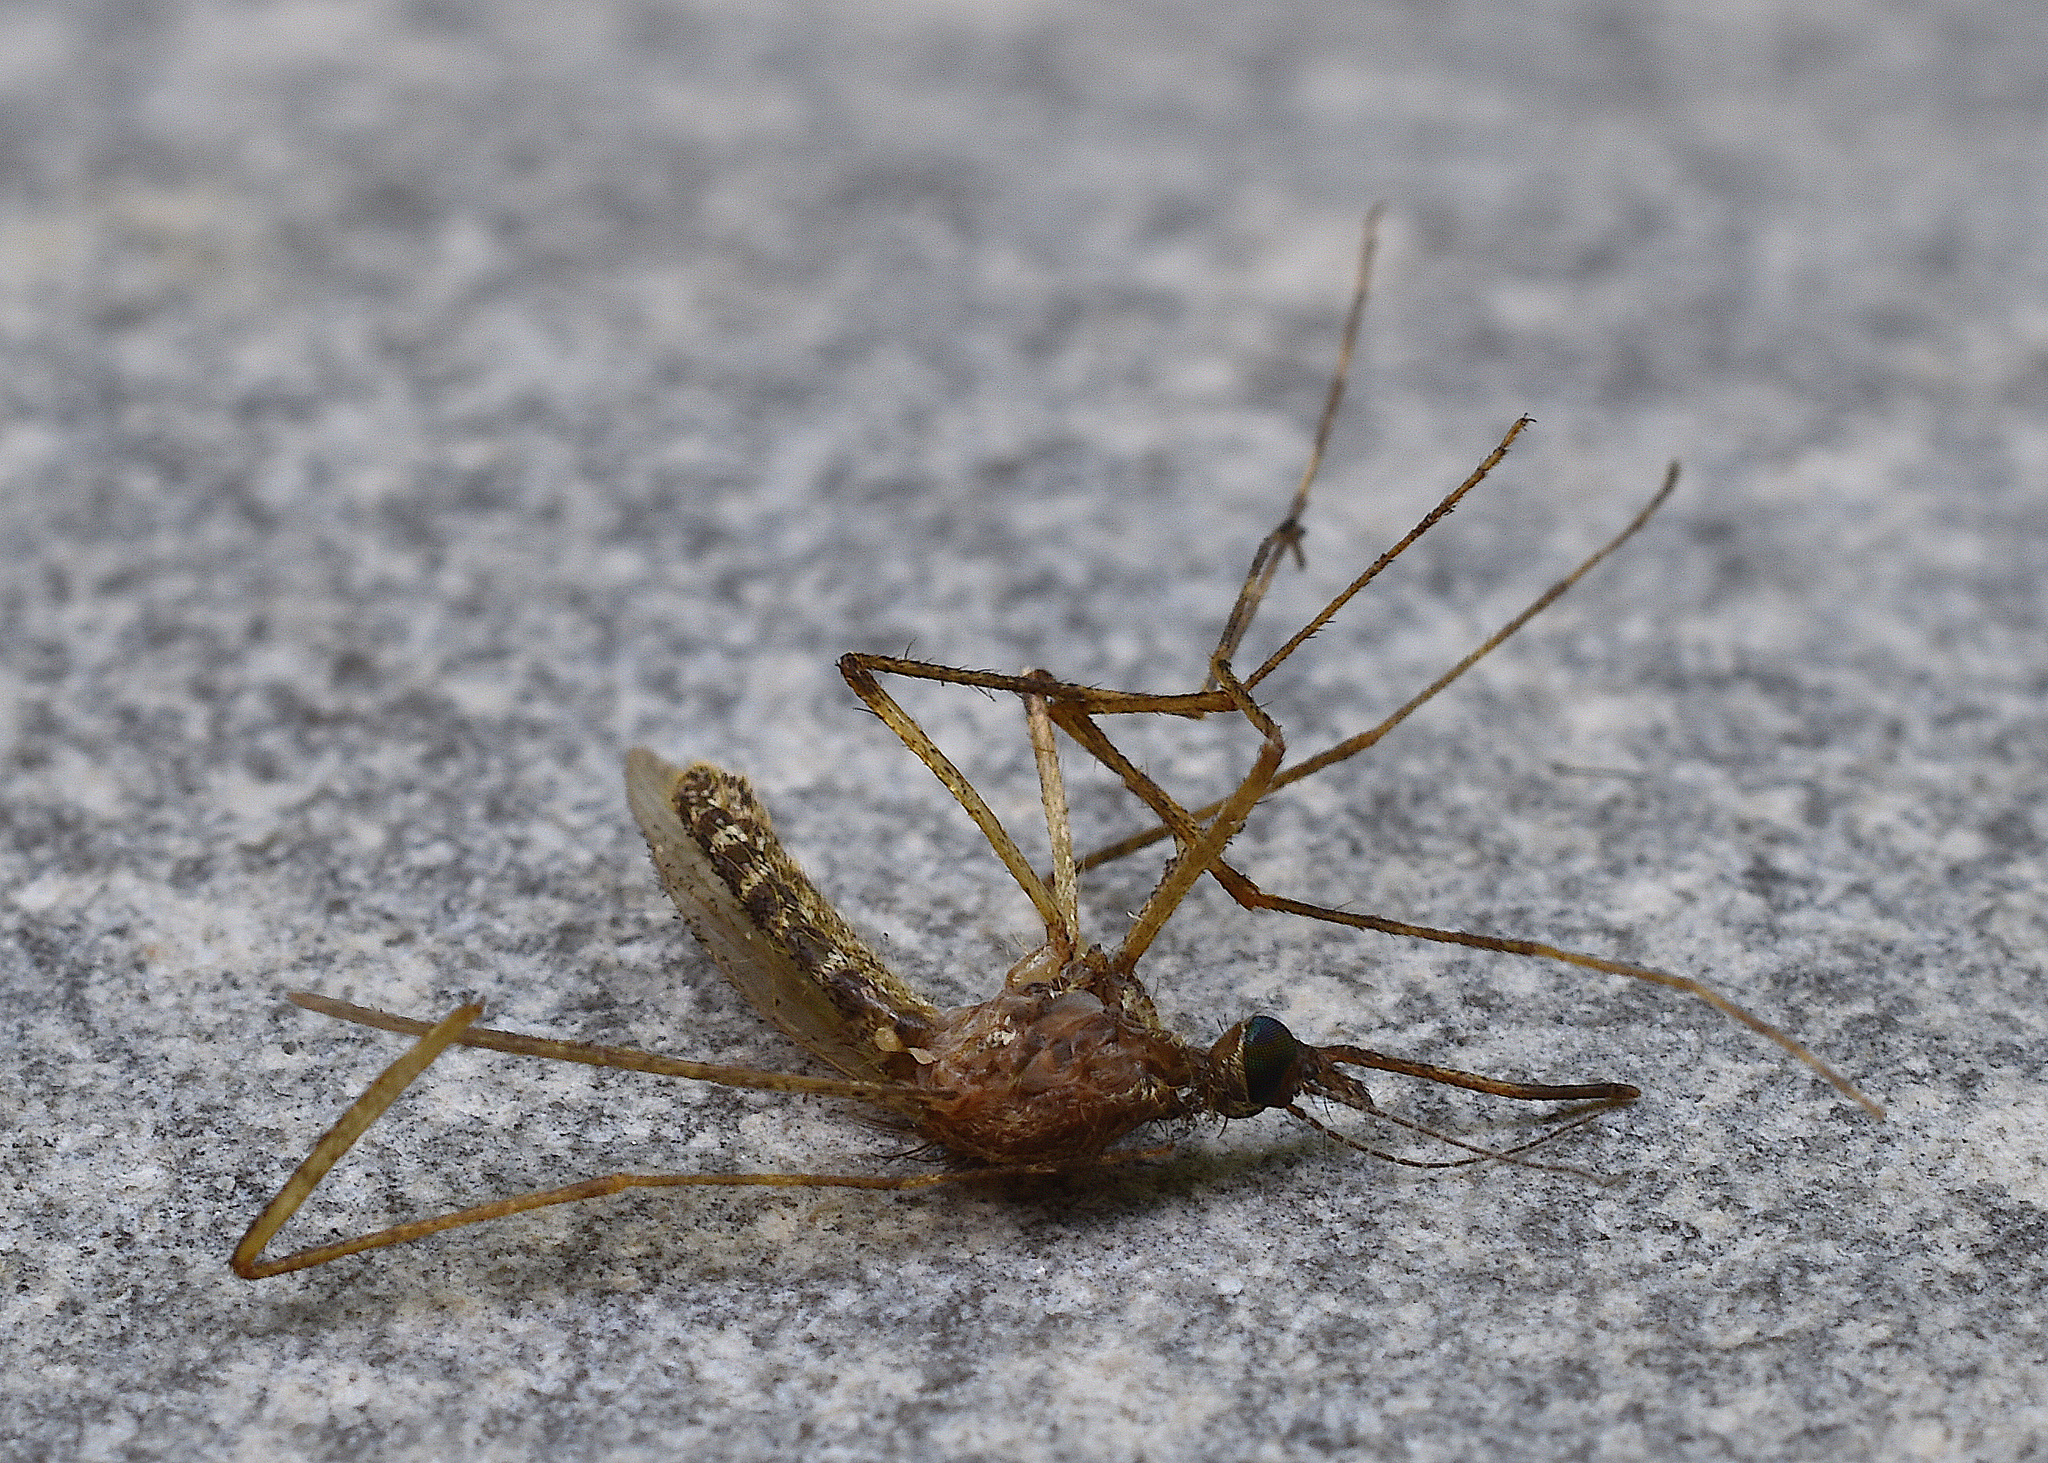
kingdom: Animalia
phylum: Arthropoda
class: Insecta
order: Diptera
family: Culicidae
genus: Coquillettidia
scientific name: Coquillettidia perturbans
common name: Cattail mosquito
